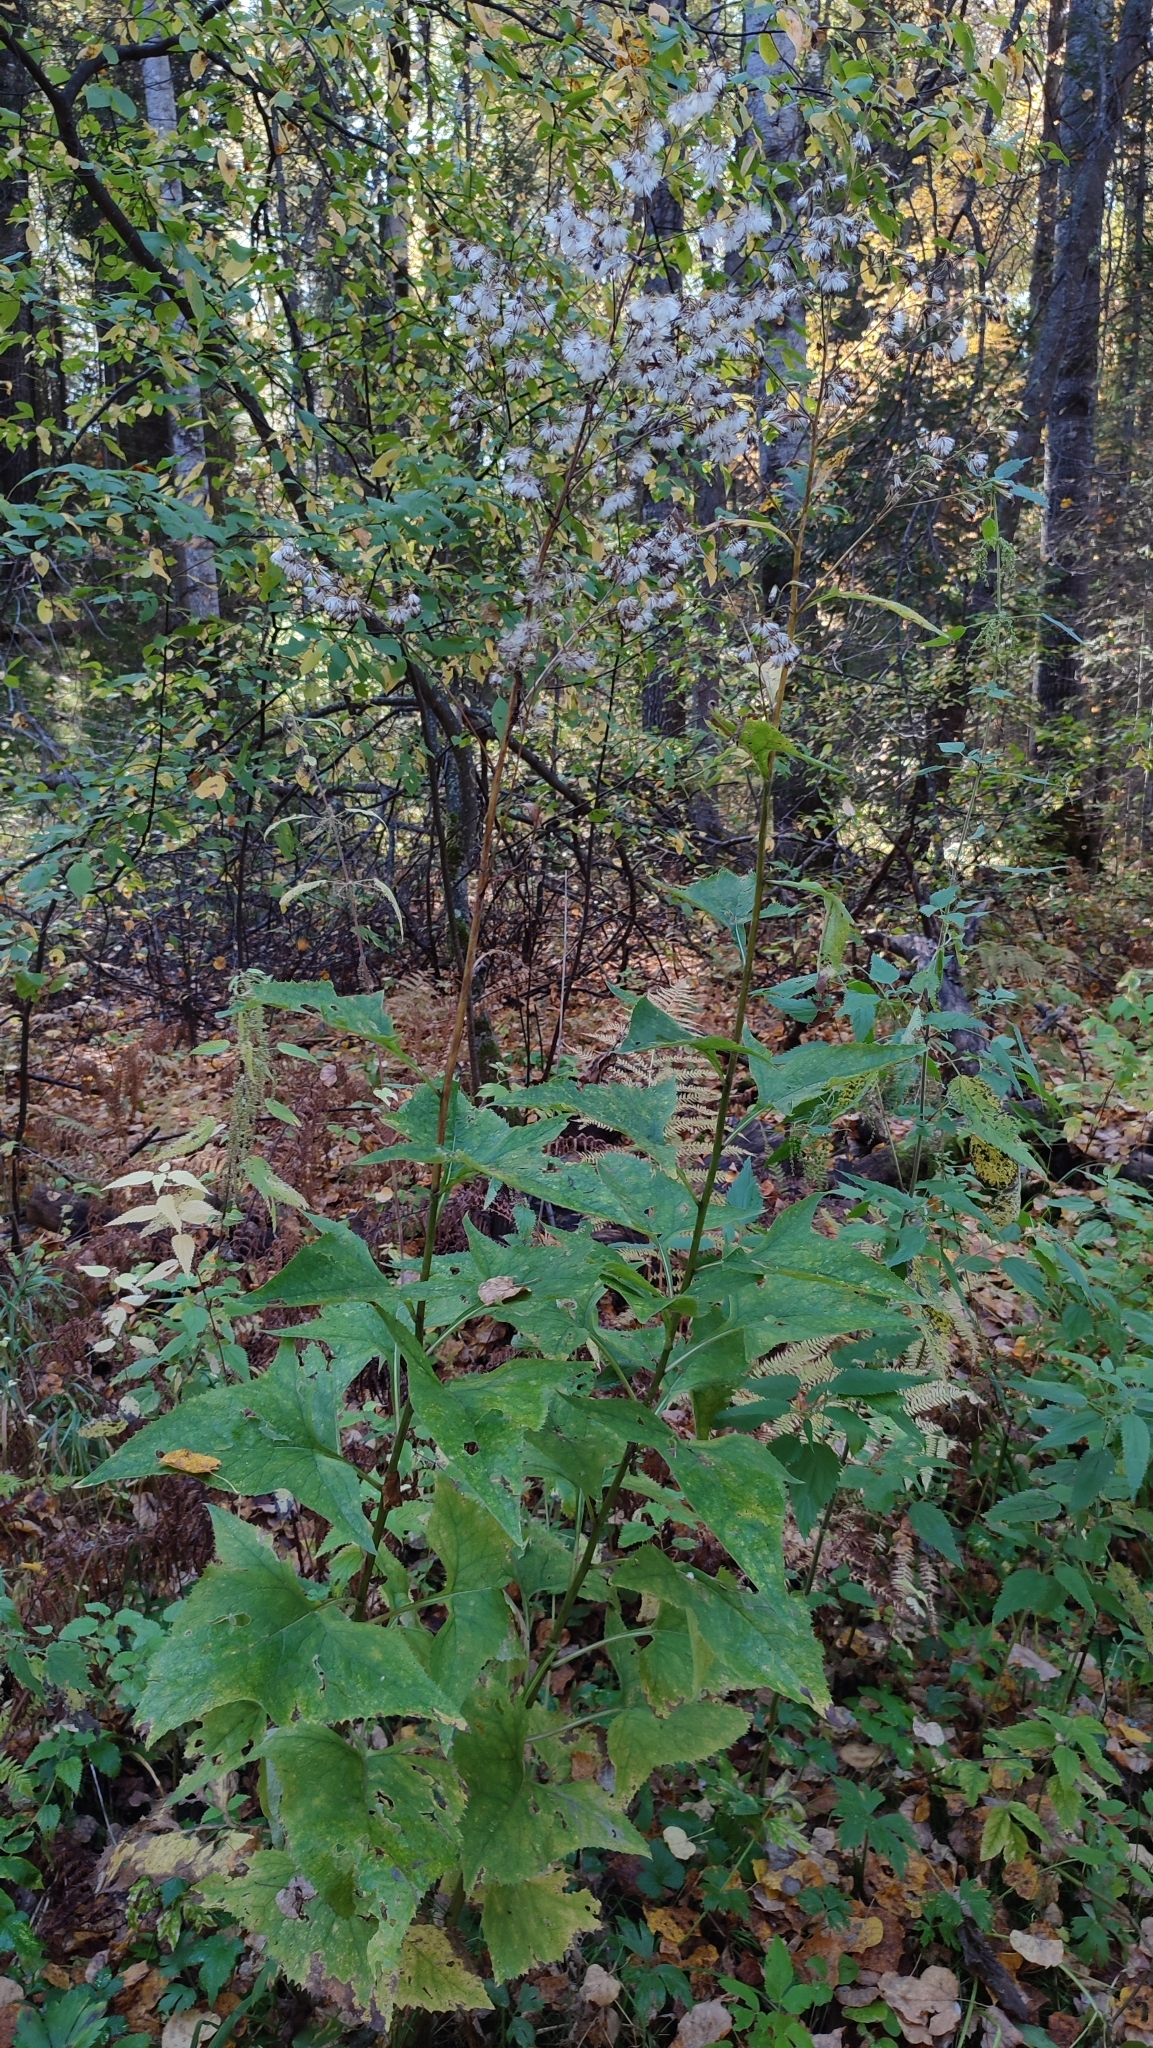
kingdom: Plantae
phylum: Tracheophyta
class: Magnoliopsida
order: Asterales
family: Asteraceae
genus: Parasenecio
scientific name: Parasenecio hastatus
